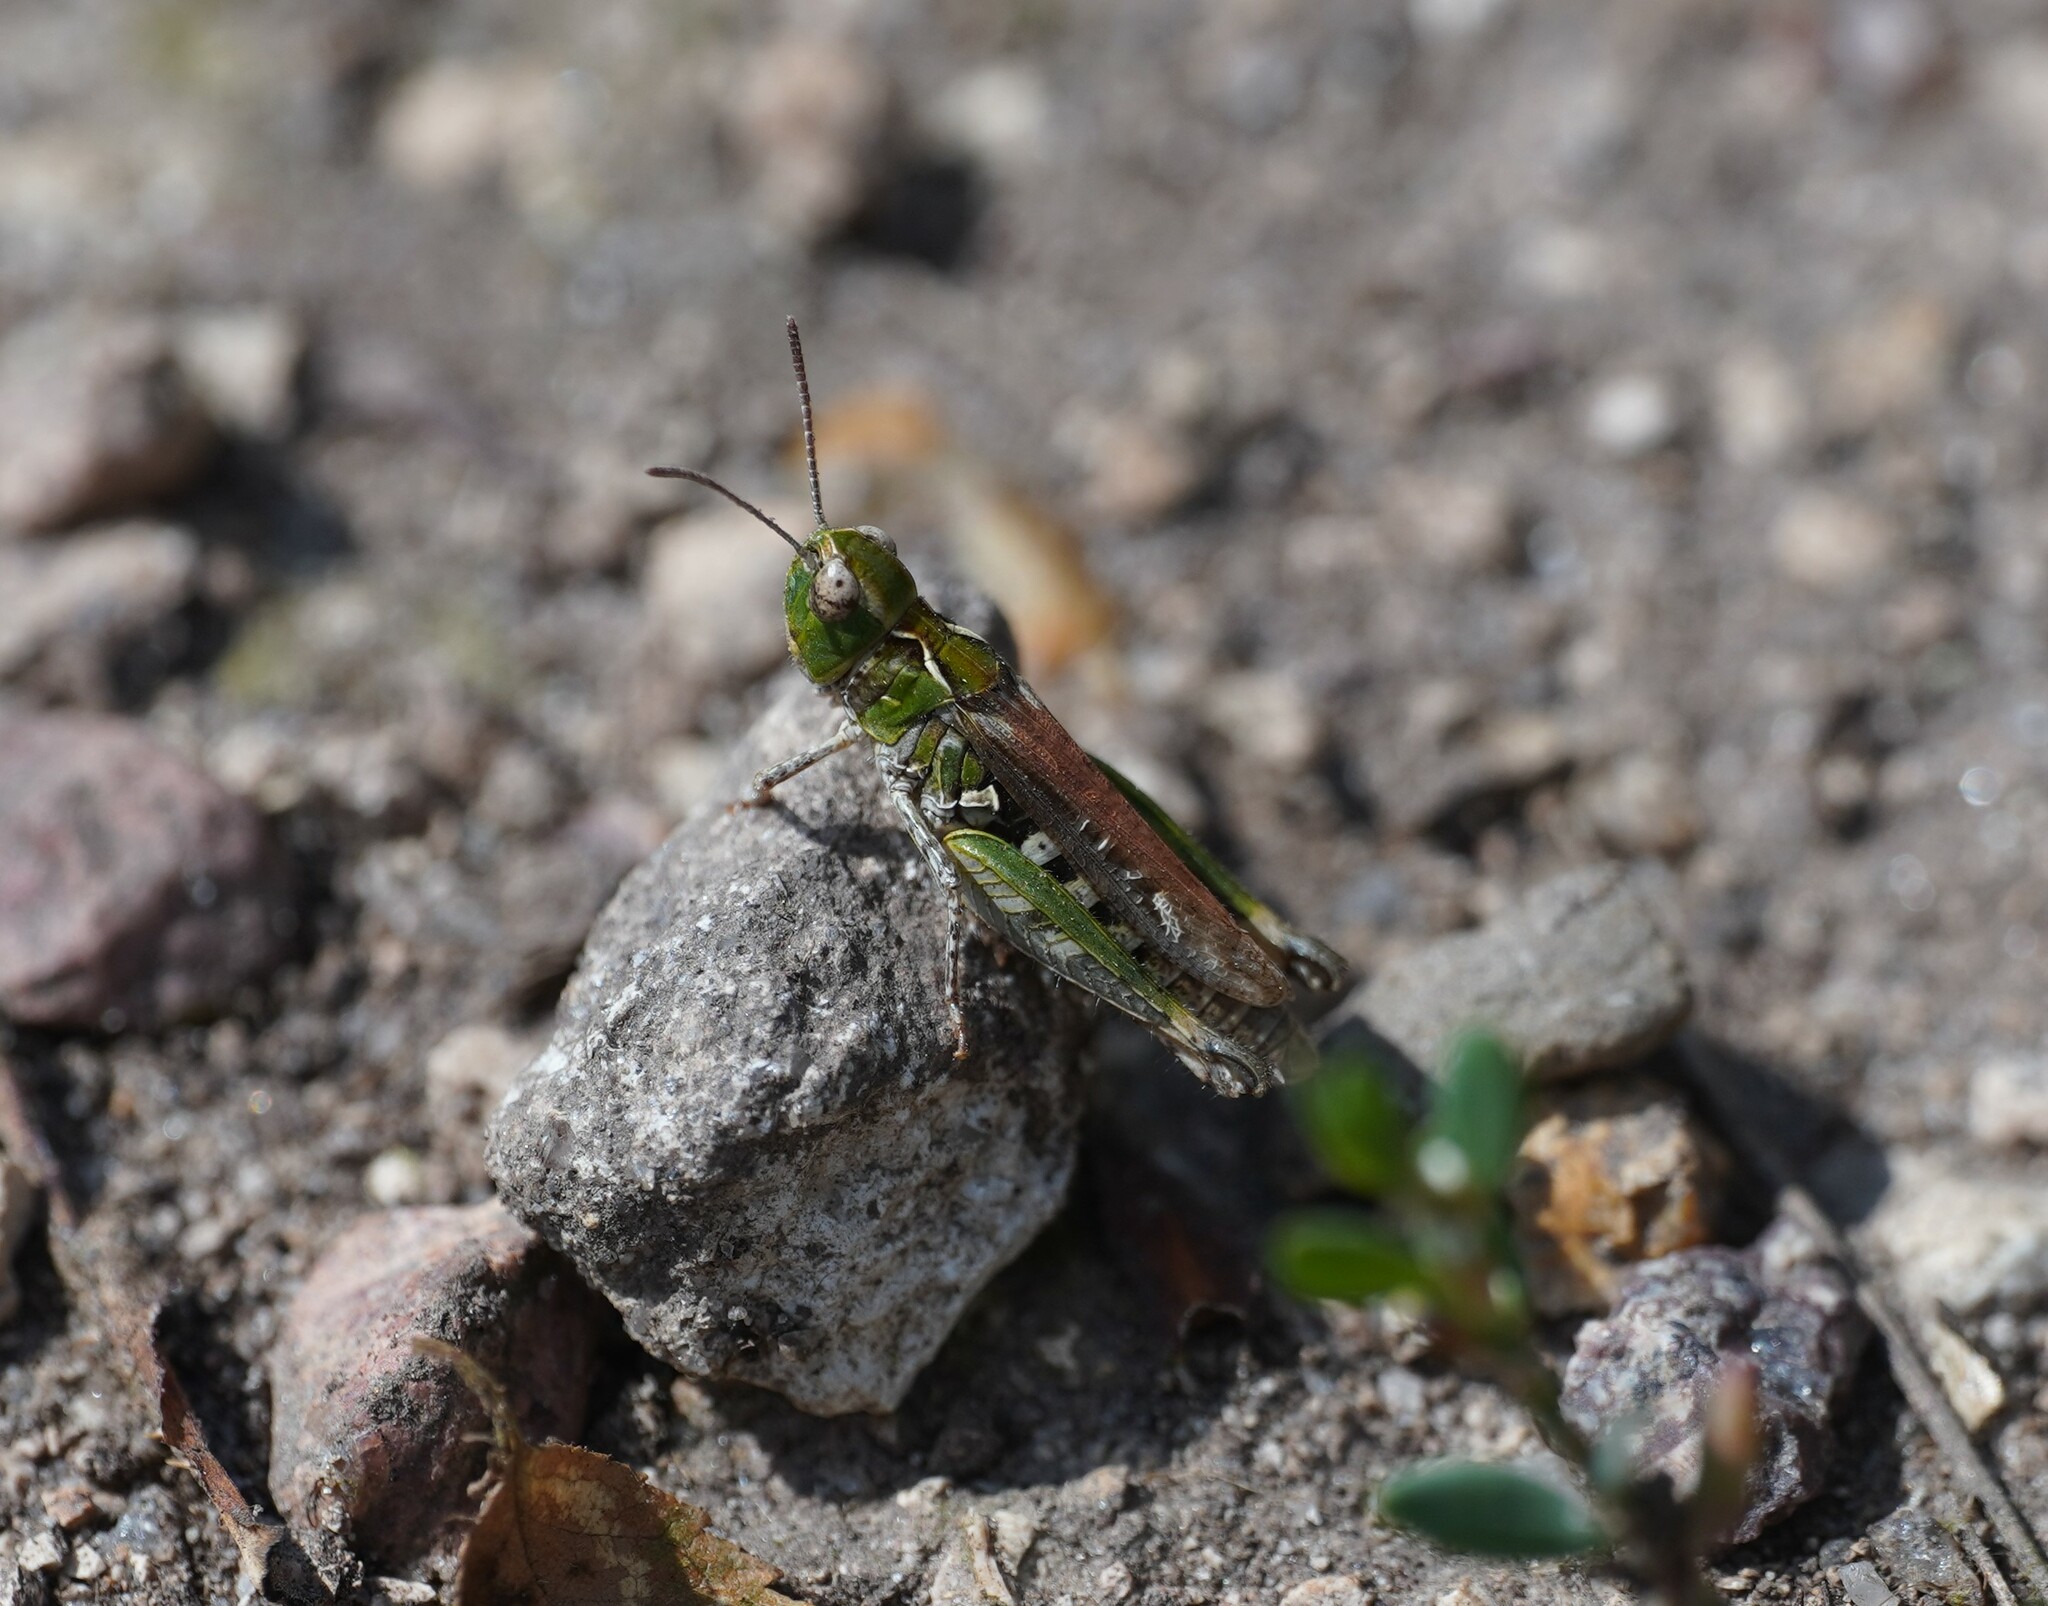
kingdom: Animalia
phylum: Arthropoda
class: Insecta
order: Orthoptera
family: Acrididae
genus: Myrmeleotettix
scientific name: Myrmeleotettix maculatus
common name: Mottled grasshopper
